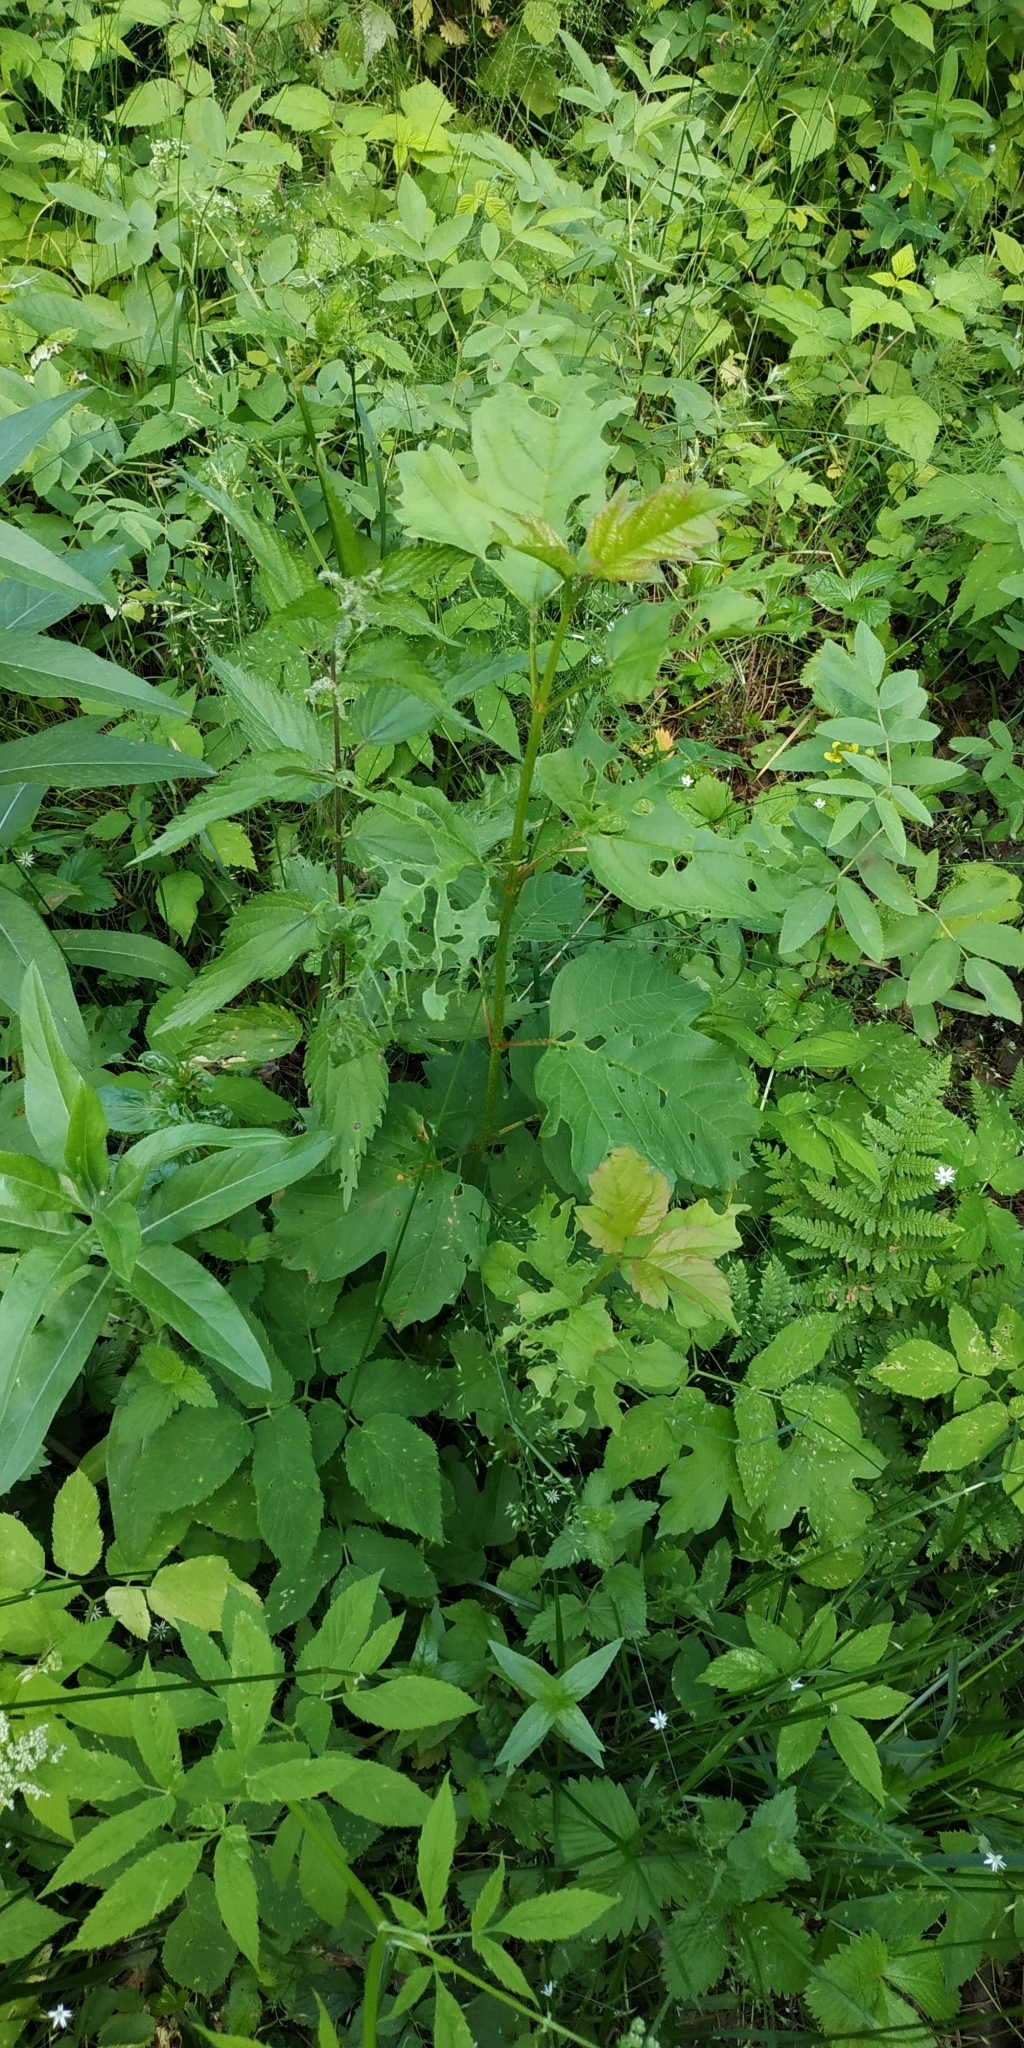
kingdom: Plantae
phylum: Tracheophyta
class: Magnoliopsida
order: Dipsacales
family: Viburnaceae
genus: Viburnum
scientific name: Viburnum opulus
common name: Guelder-rose
